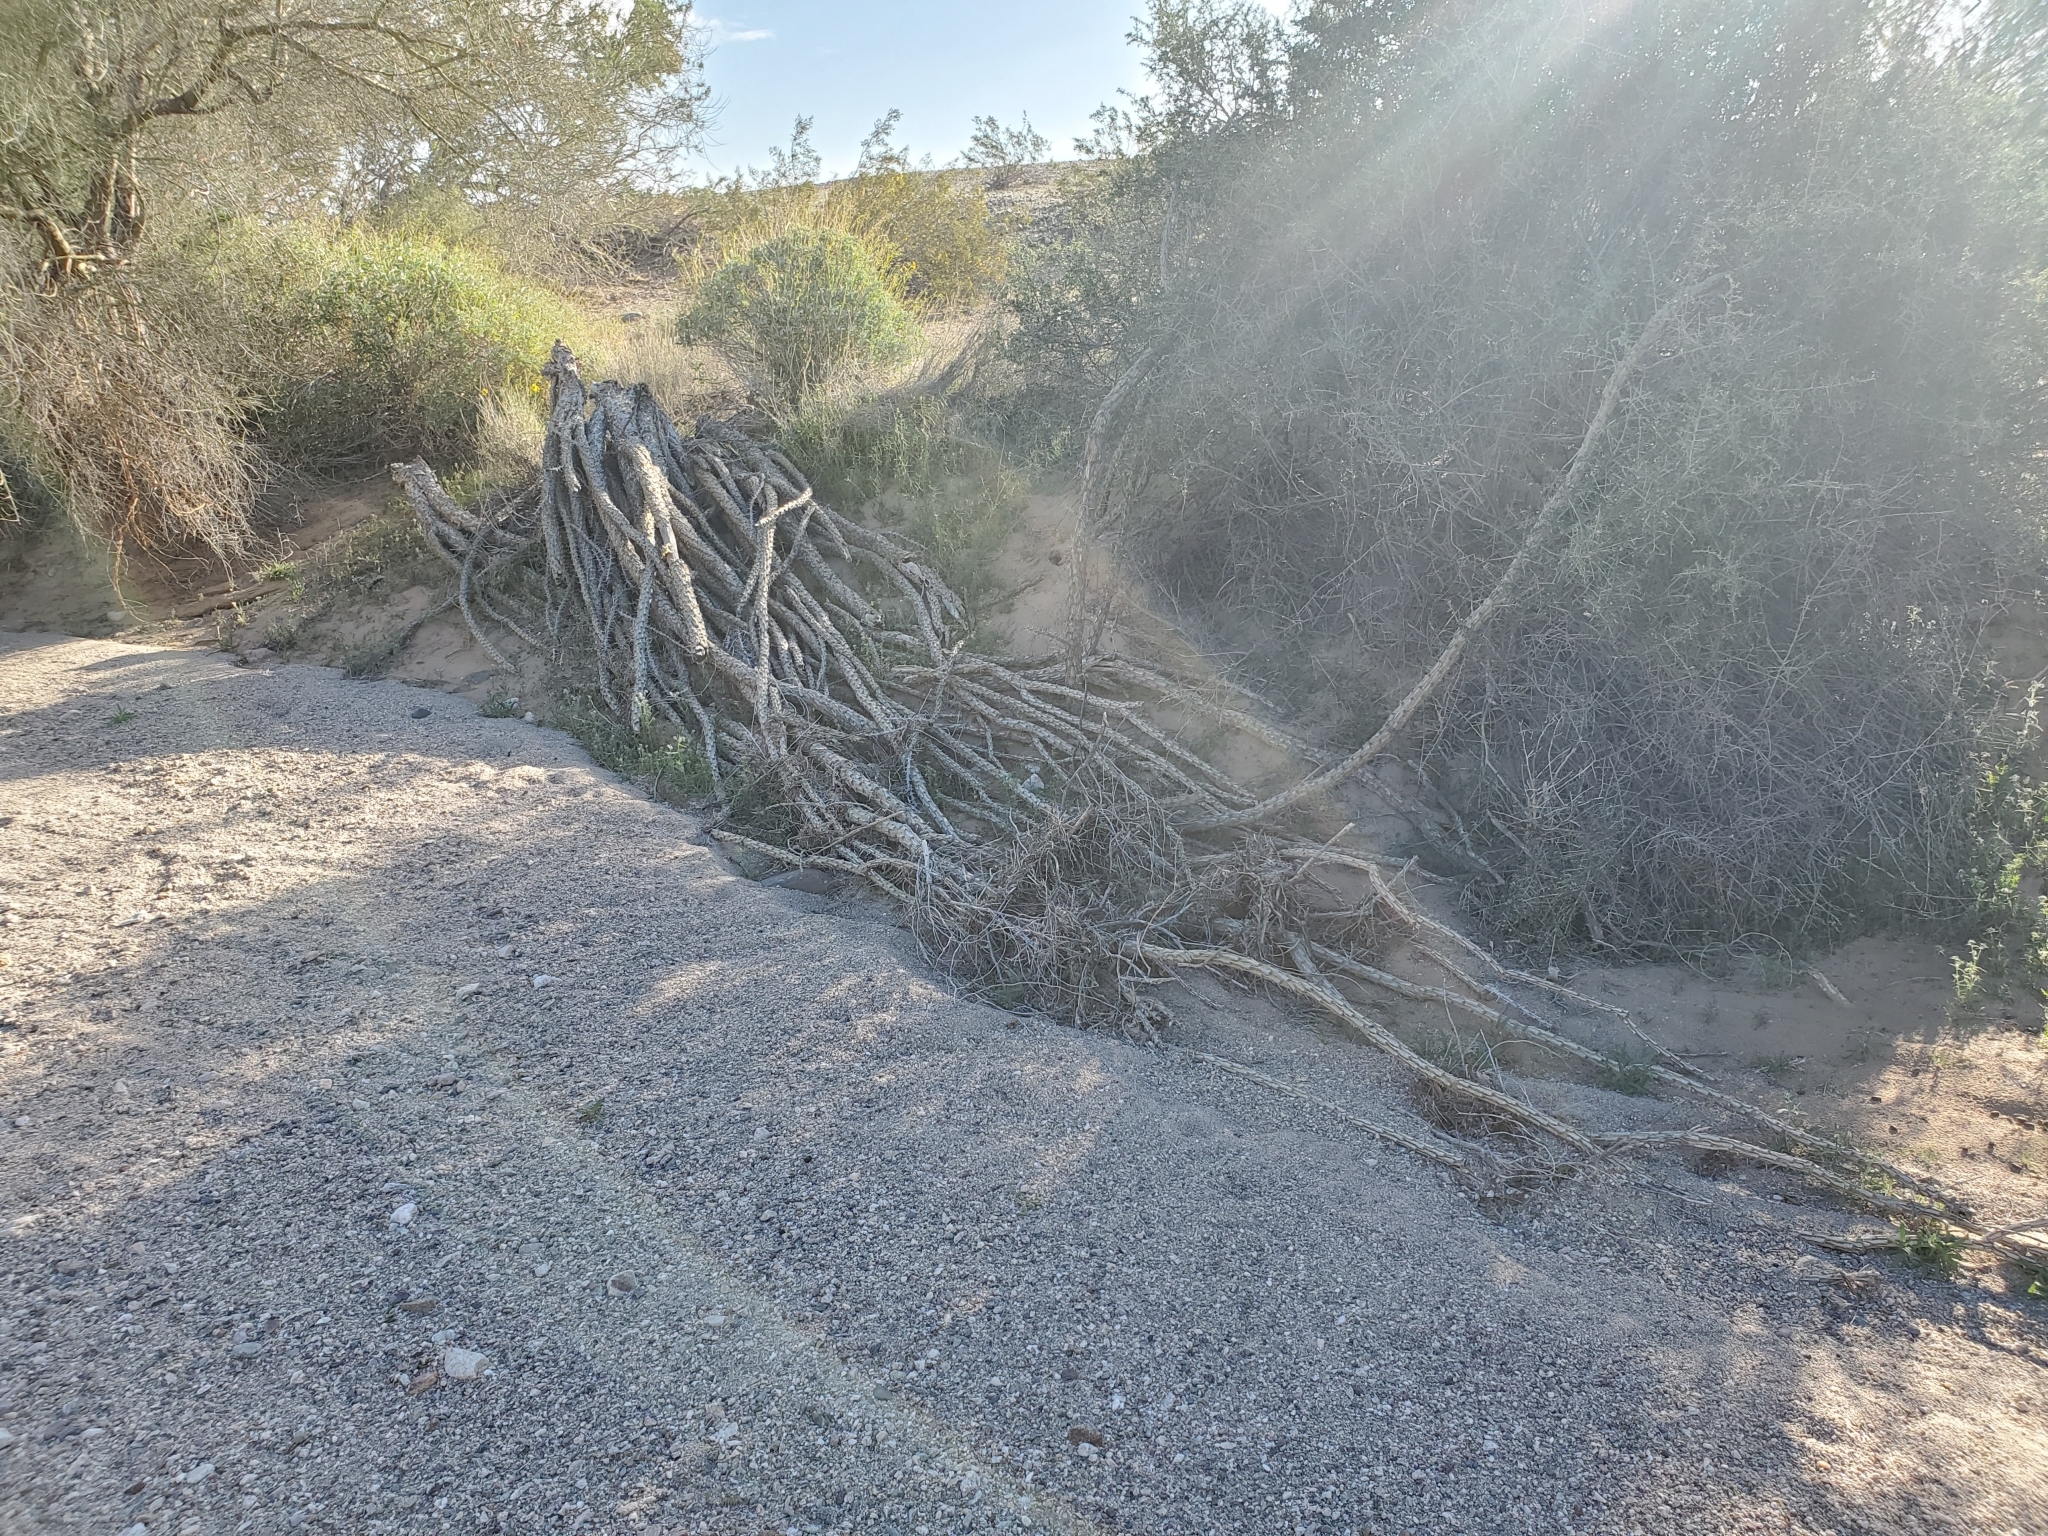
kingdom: Plantae
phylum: Tracheophyta
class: Magnoliopsida
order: Ericales
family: Fouquieriaceae
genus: Fouquieria
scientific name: Fouquieria splendens
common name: Vine-cactus
